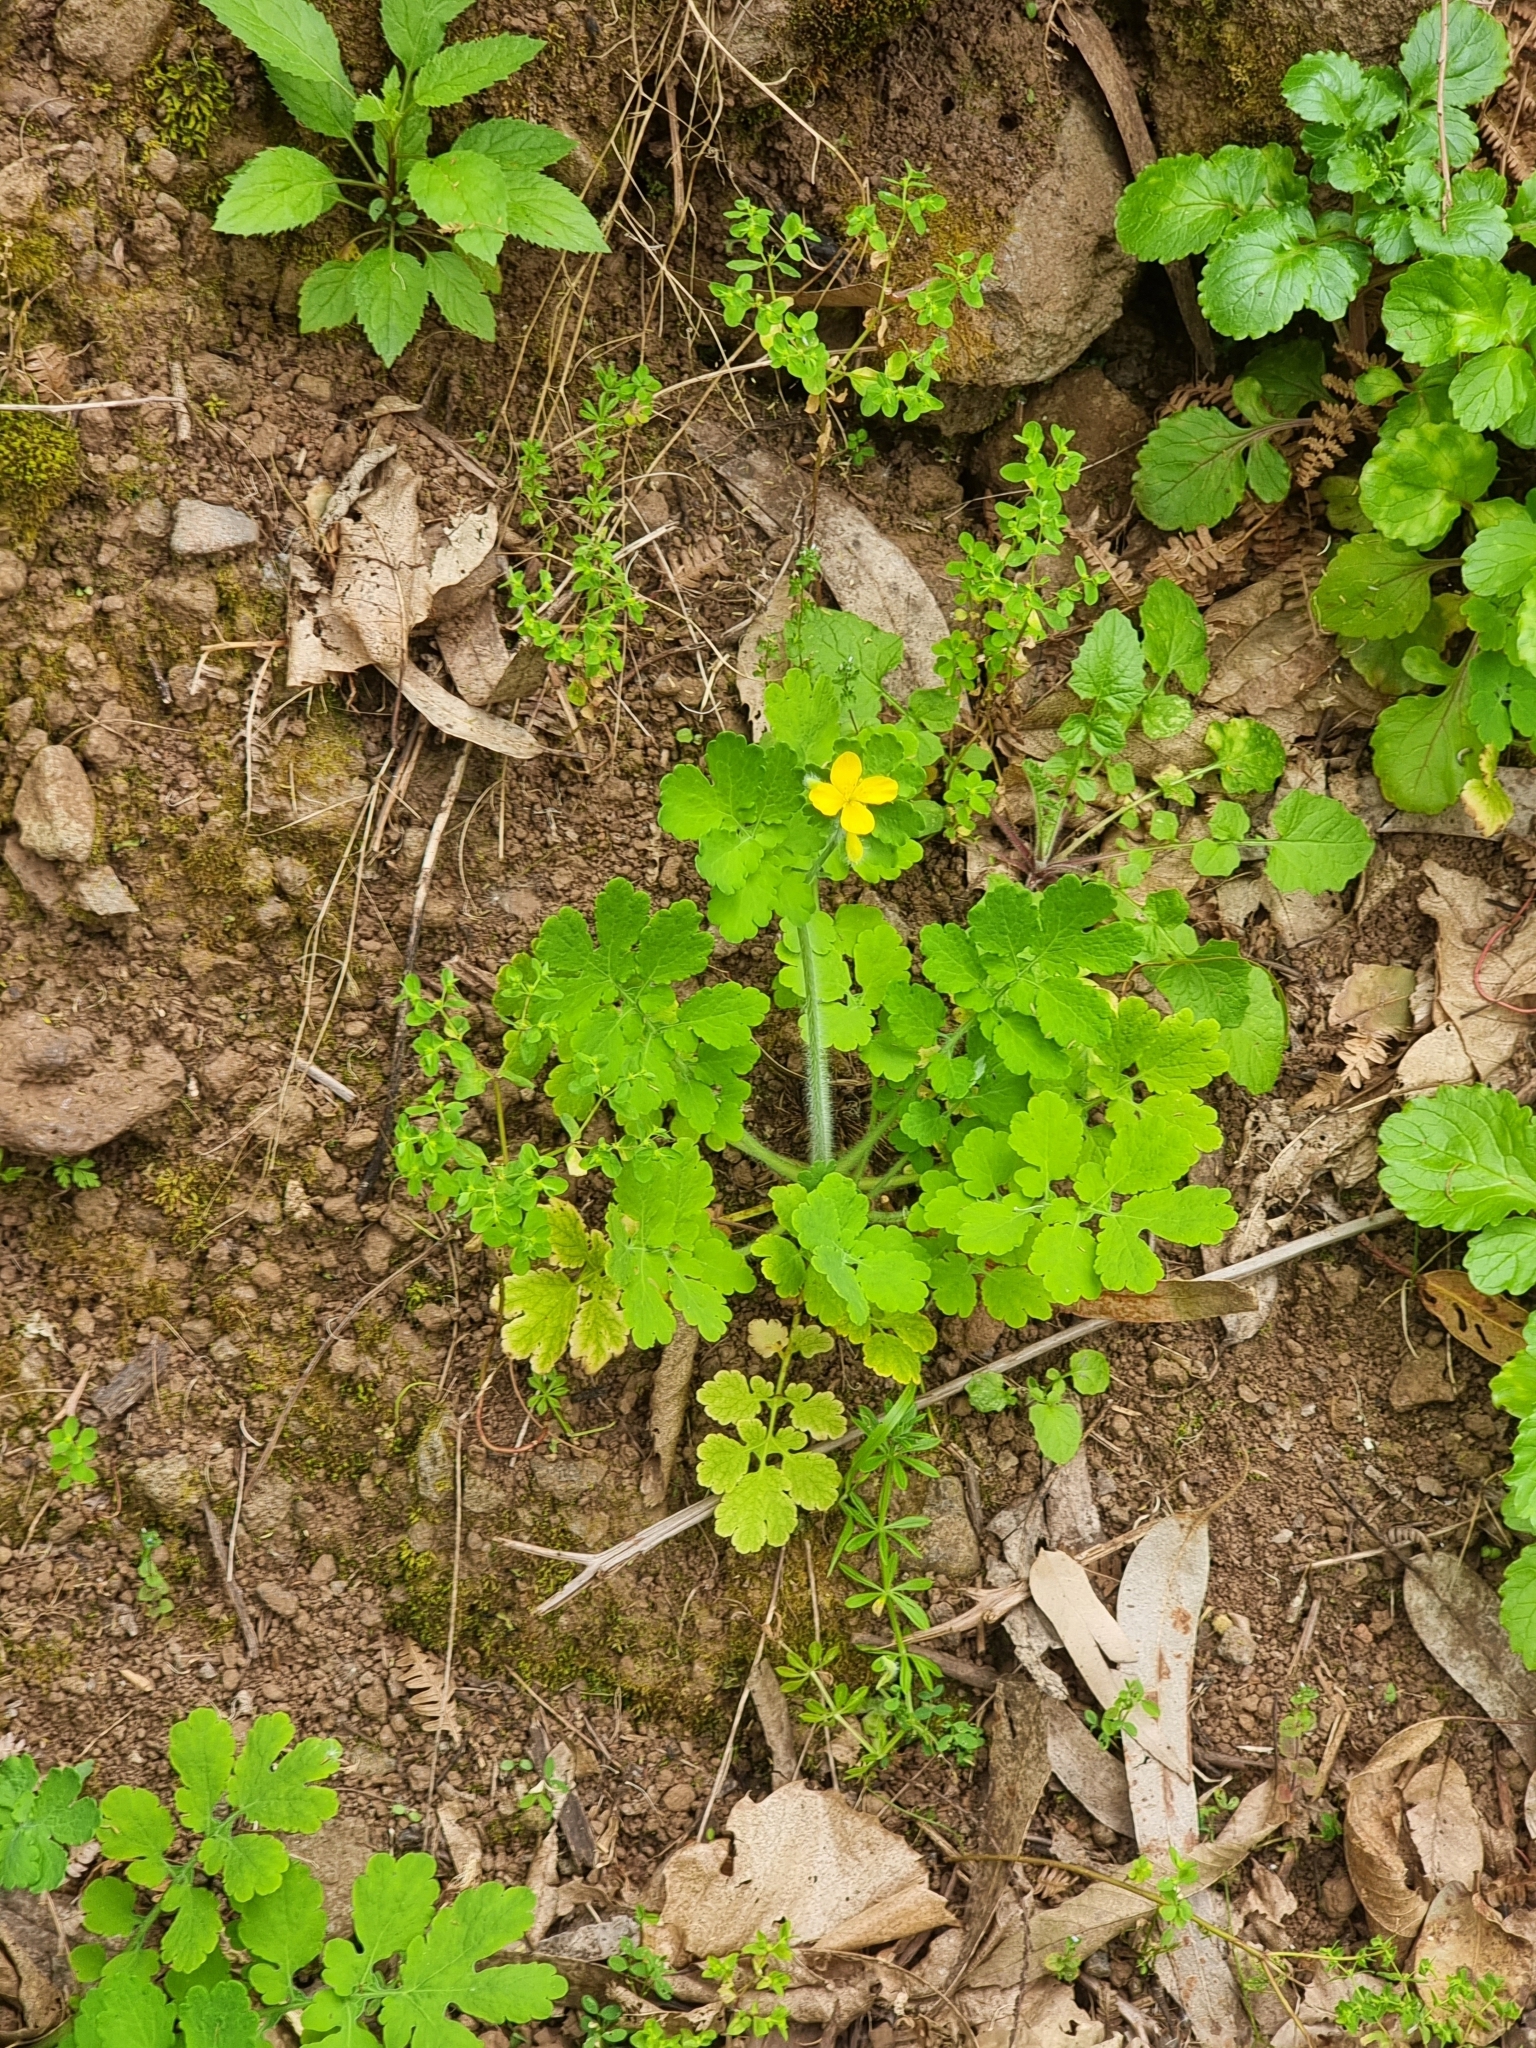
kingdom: Plantae
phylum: Tracheophyta
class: Magnoliopsida
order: Ranunculales
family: Papaveraceae
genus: Chelidonium
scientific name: Chelidonium majus
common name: Greater celandine
